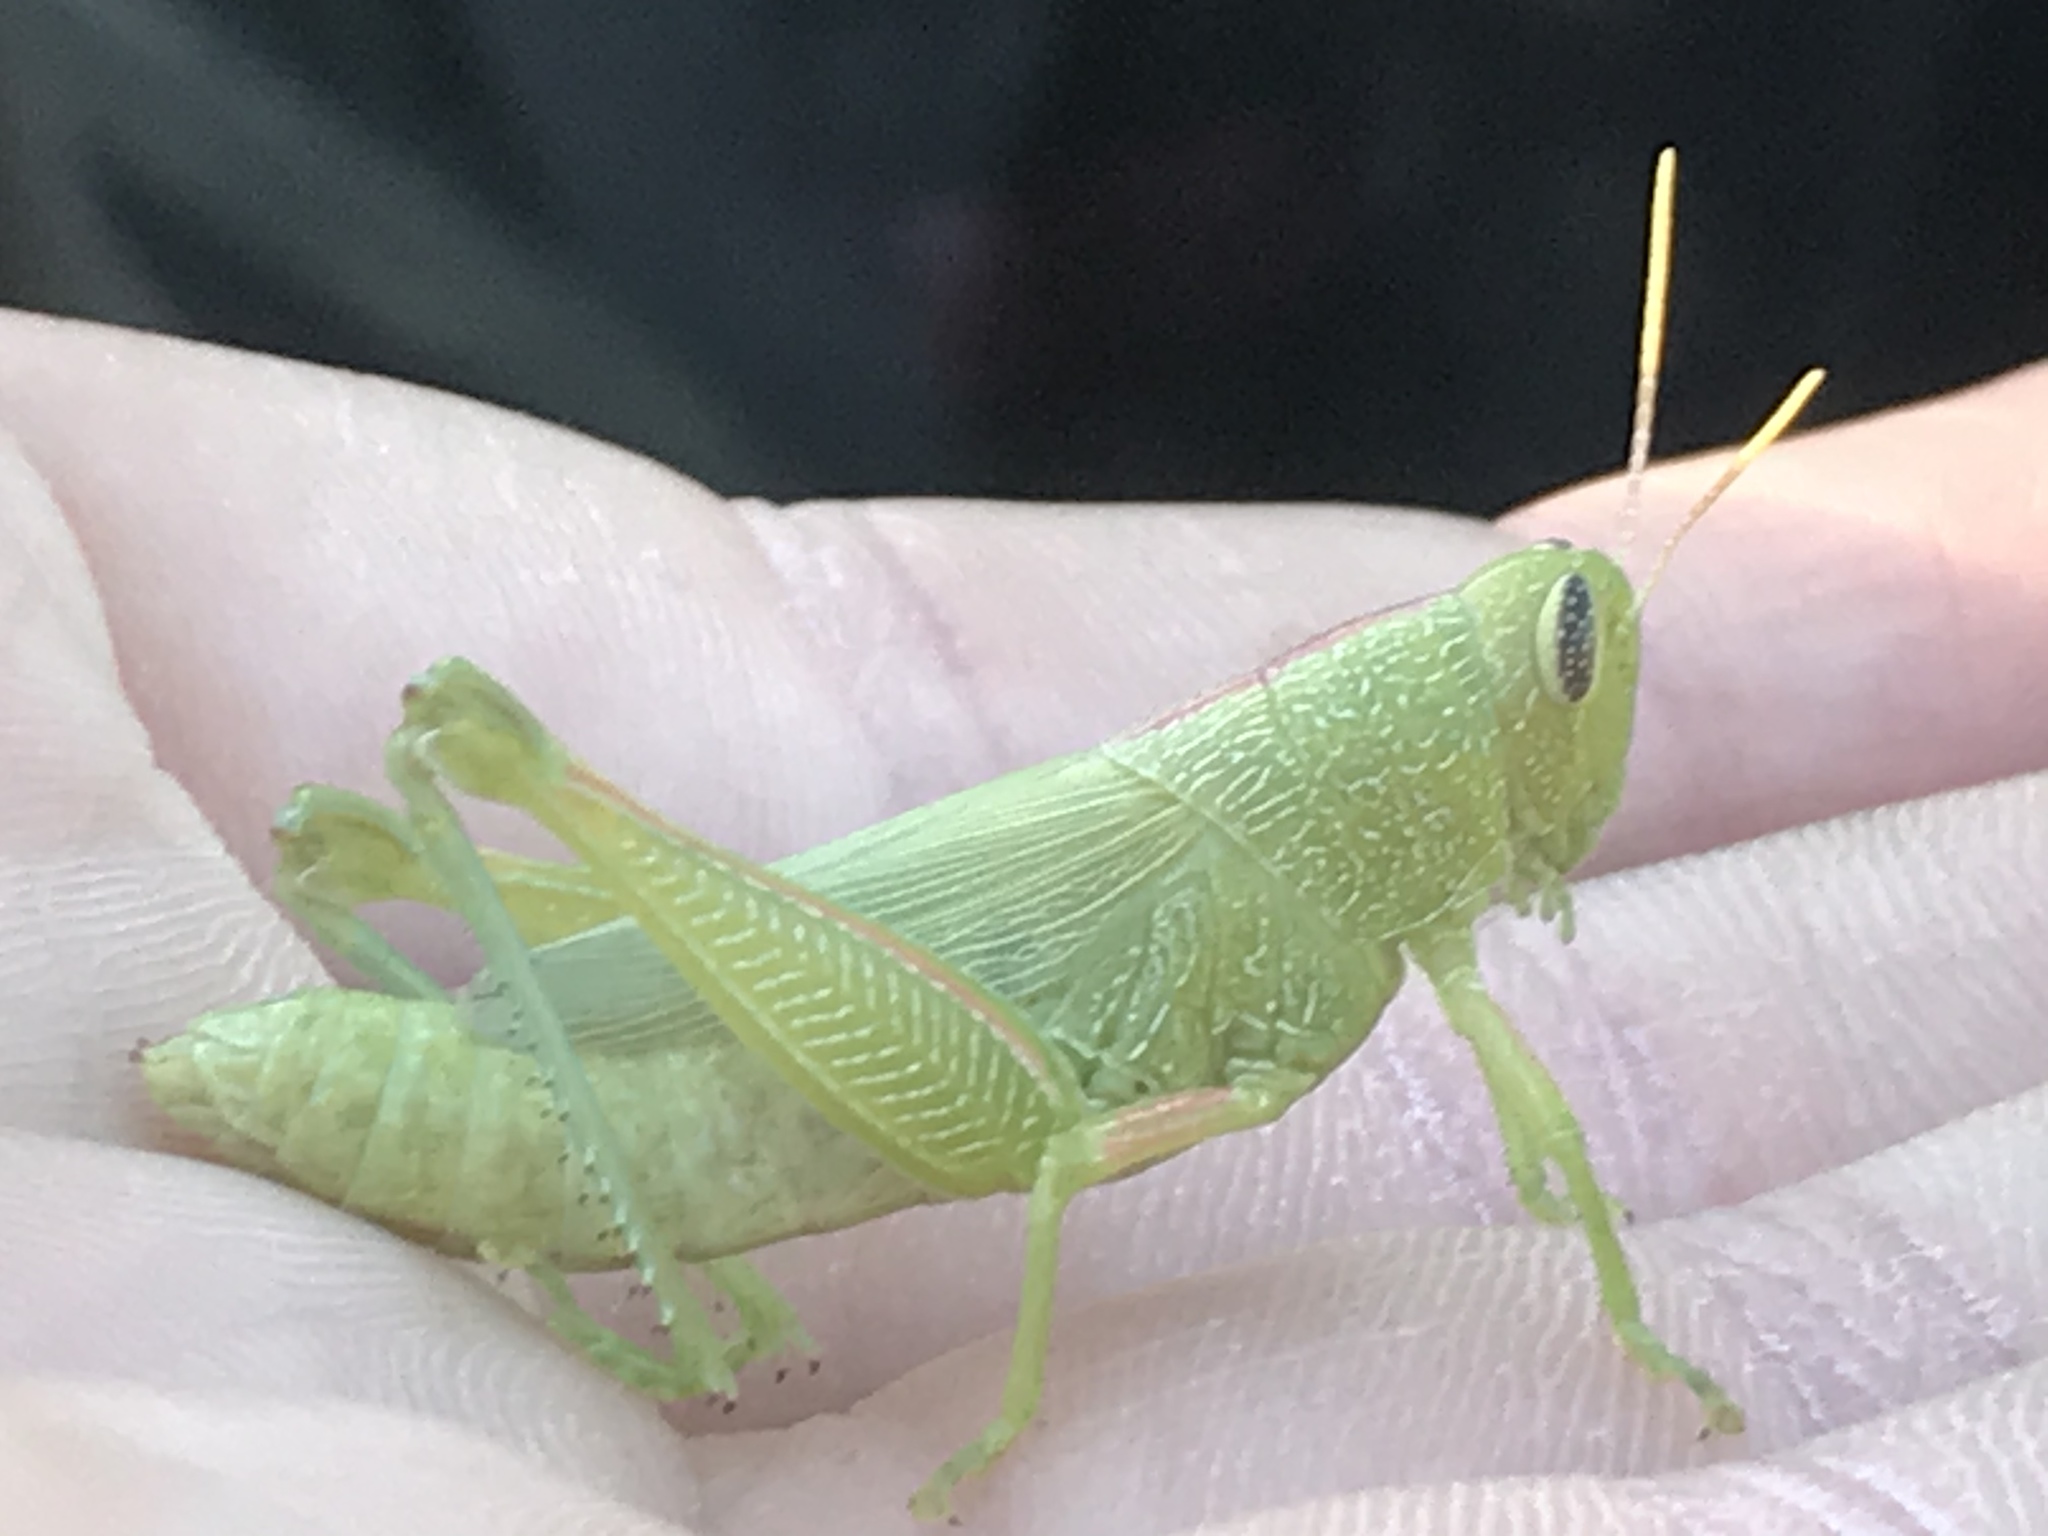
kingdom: Animalia
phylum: Arthropoda
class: Insecta
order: Orthoptera
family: Acrididae
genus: Hesperotettix
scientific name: Hesperotettix speciosus
